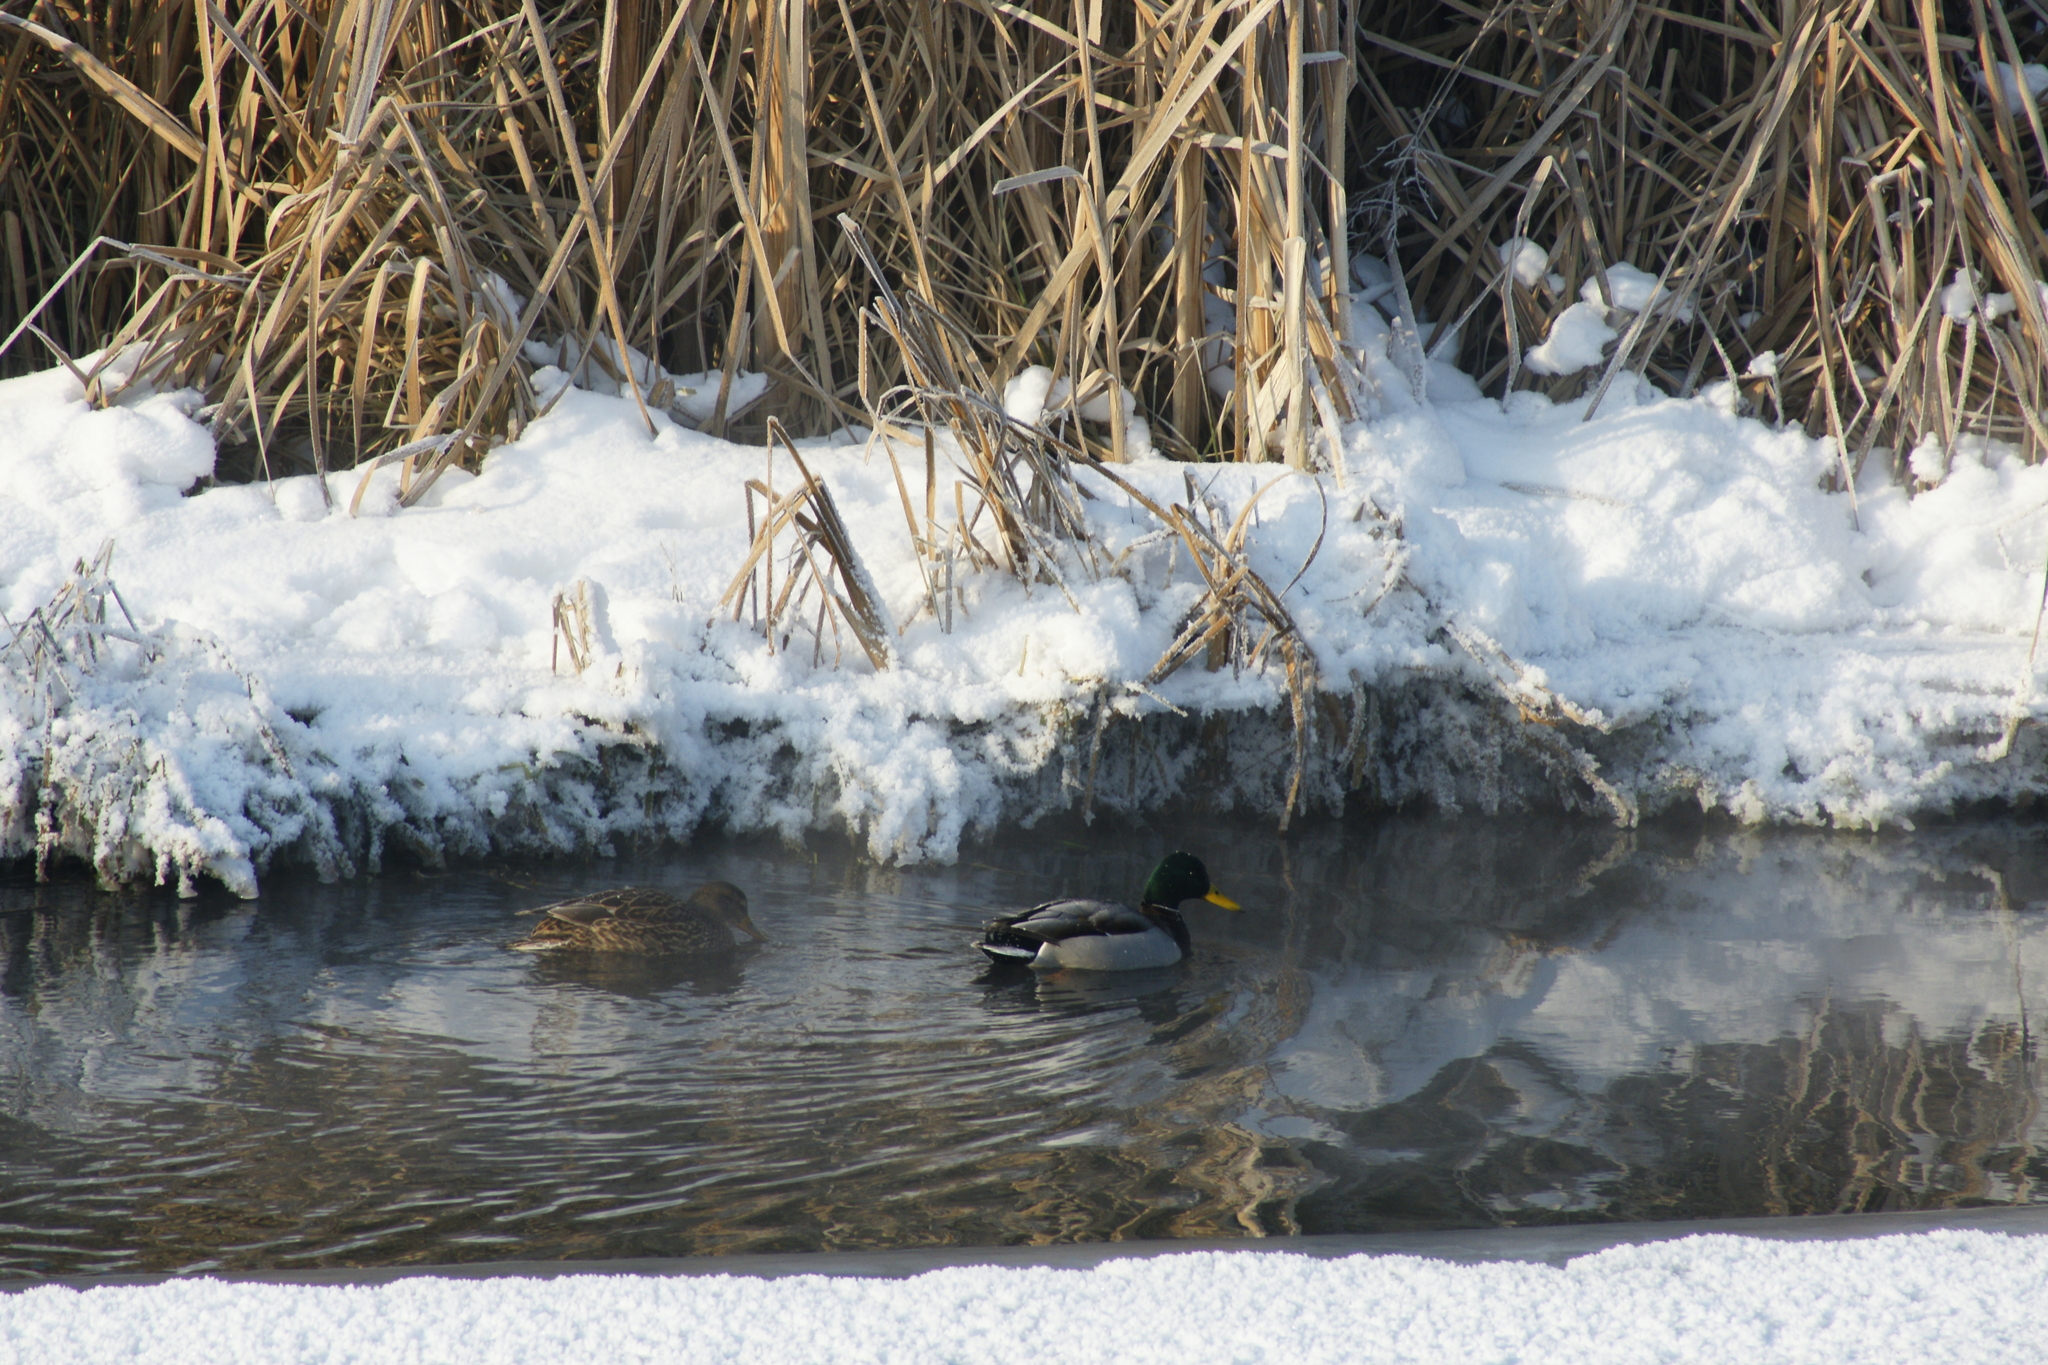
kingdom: Animalia
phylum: Chordata
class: Aves
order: Anseriformes
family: Anatidae
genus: Anas
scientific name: Anas platyrhynchos
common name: Mallard
